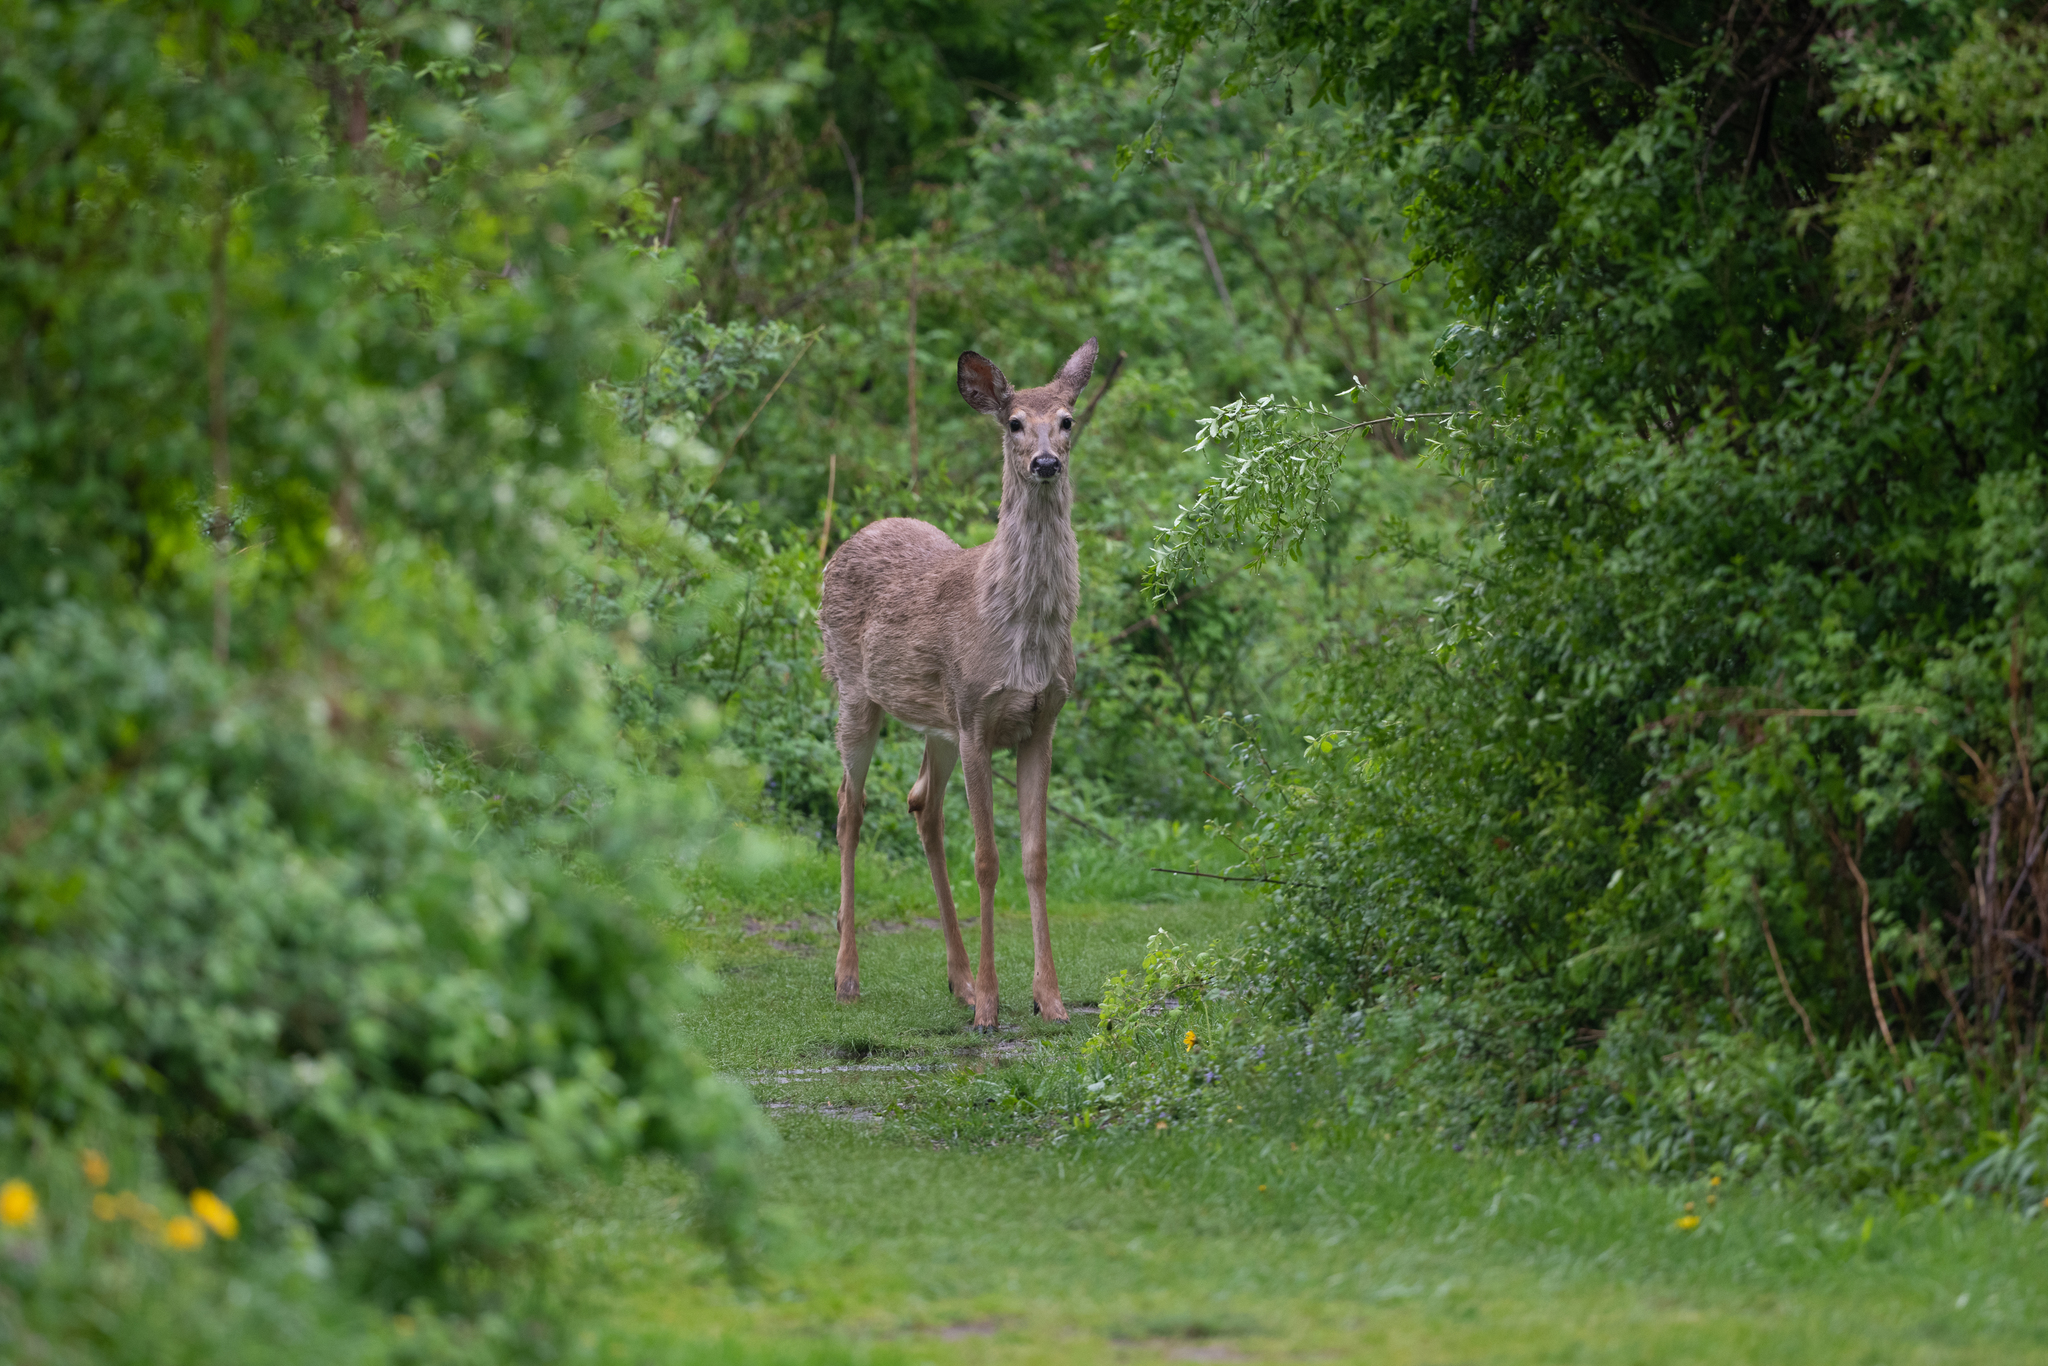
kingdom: Animalia
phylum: Chordata
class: Mammalia
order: Artiodactyla
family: Cervidae
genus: Odocoileus
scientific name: Odocoileus virginianus
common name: White-tailed deer
